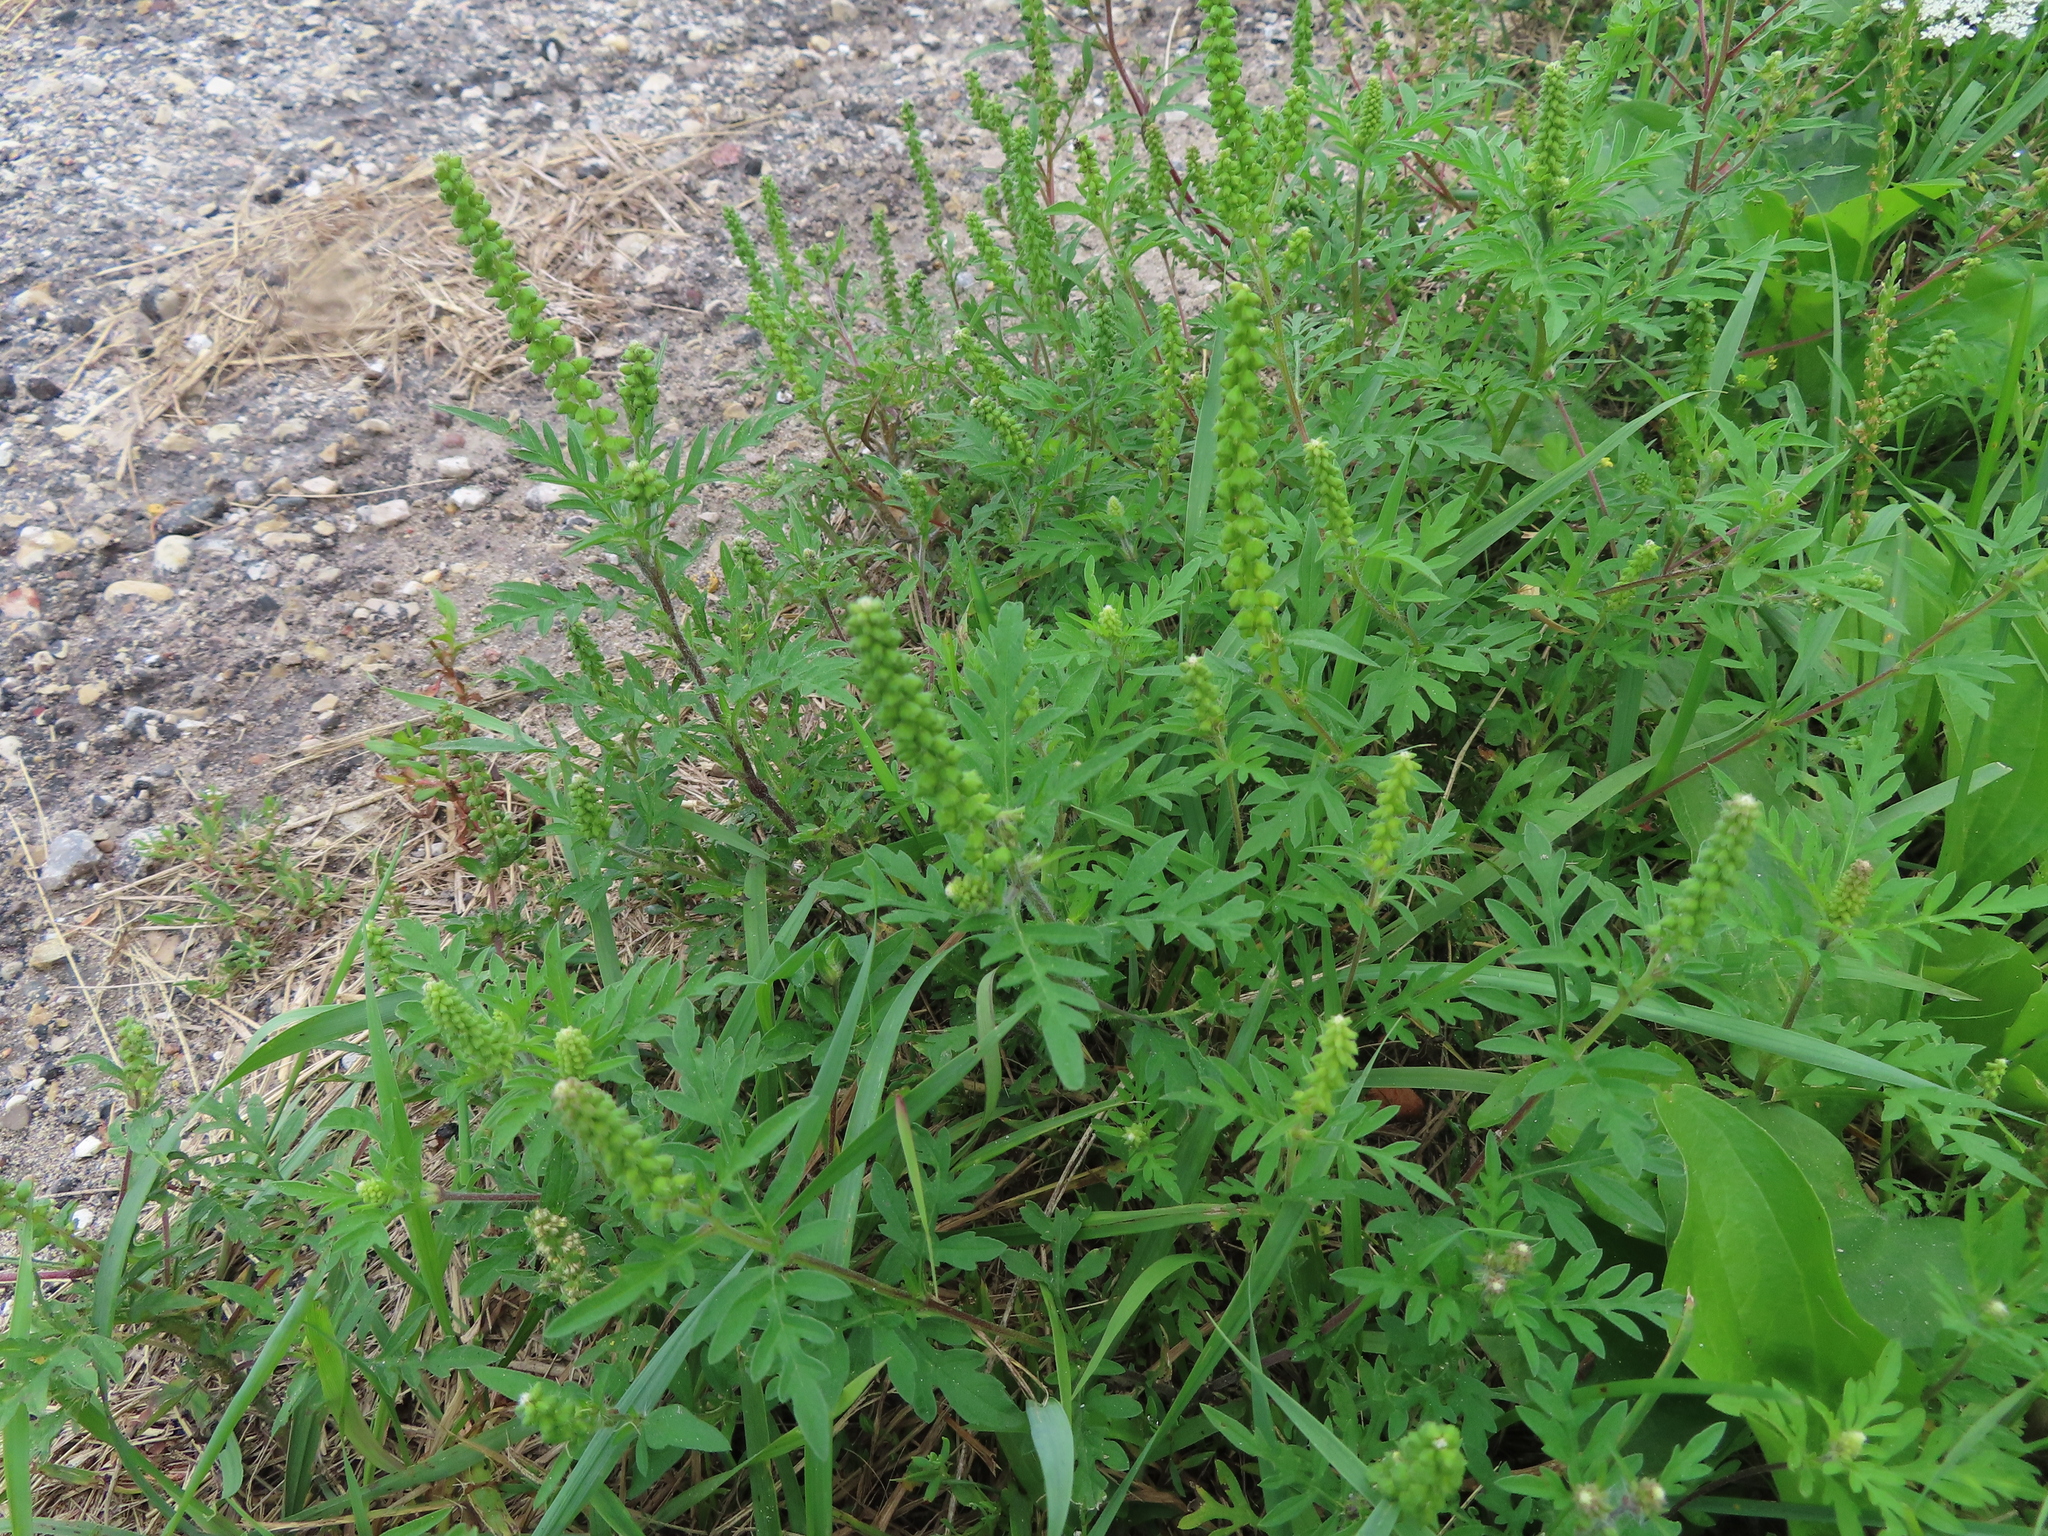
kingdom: Plantae
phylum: Tracheophyta
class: Magnoliopsida
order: Asterales
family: Asteraceae
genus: Ambrosia
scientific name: Ambrosia artemisiifolia
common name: Annual ragweed
